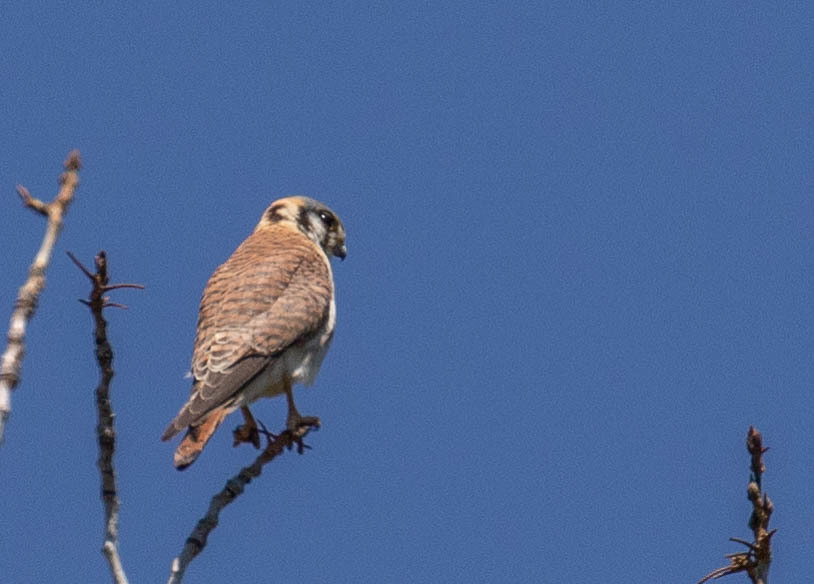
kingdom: Animalia
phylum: Chordata
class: Aves
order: Falconiformes
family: Falconidae
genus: Falco
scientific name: Falco sparverius
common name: American kestrel
